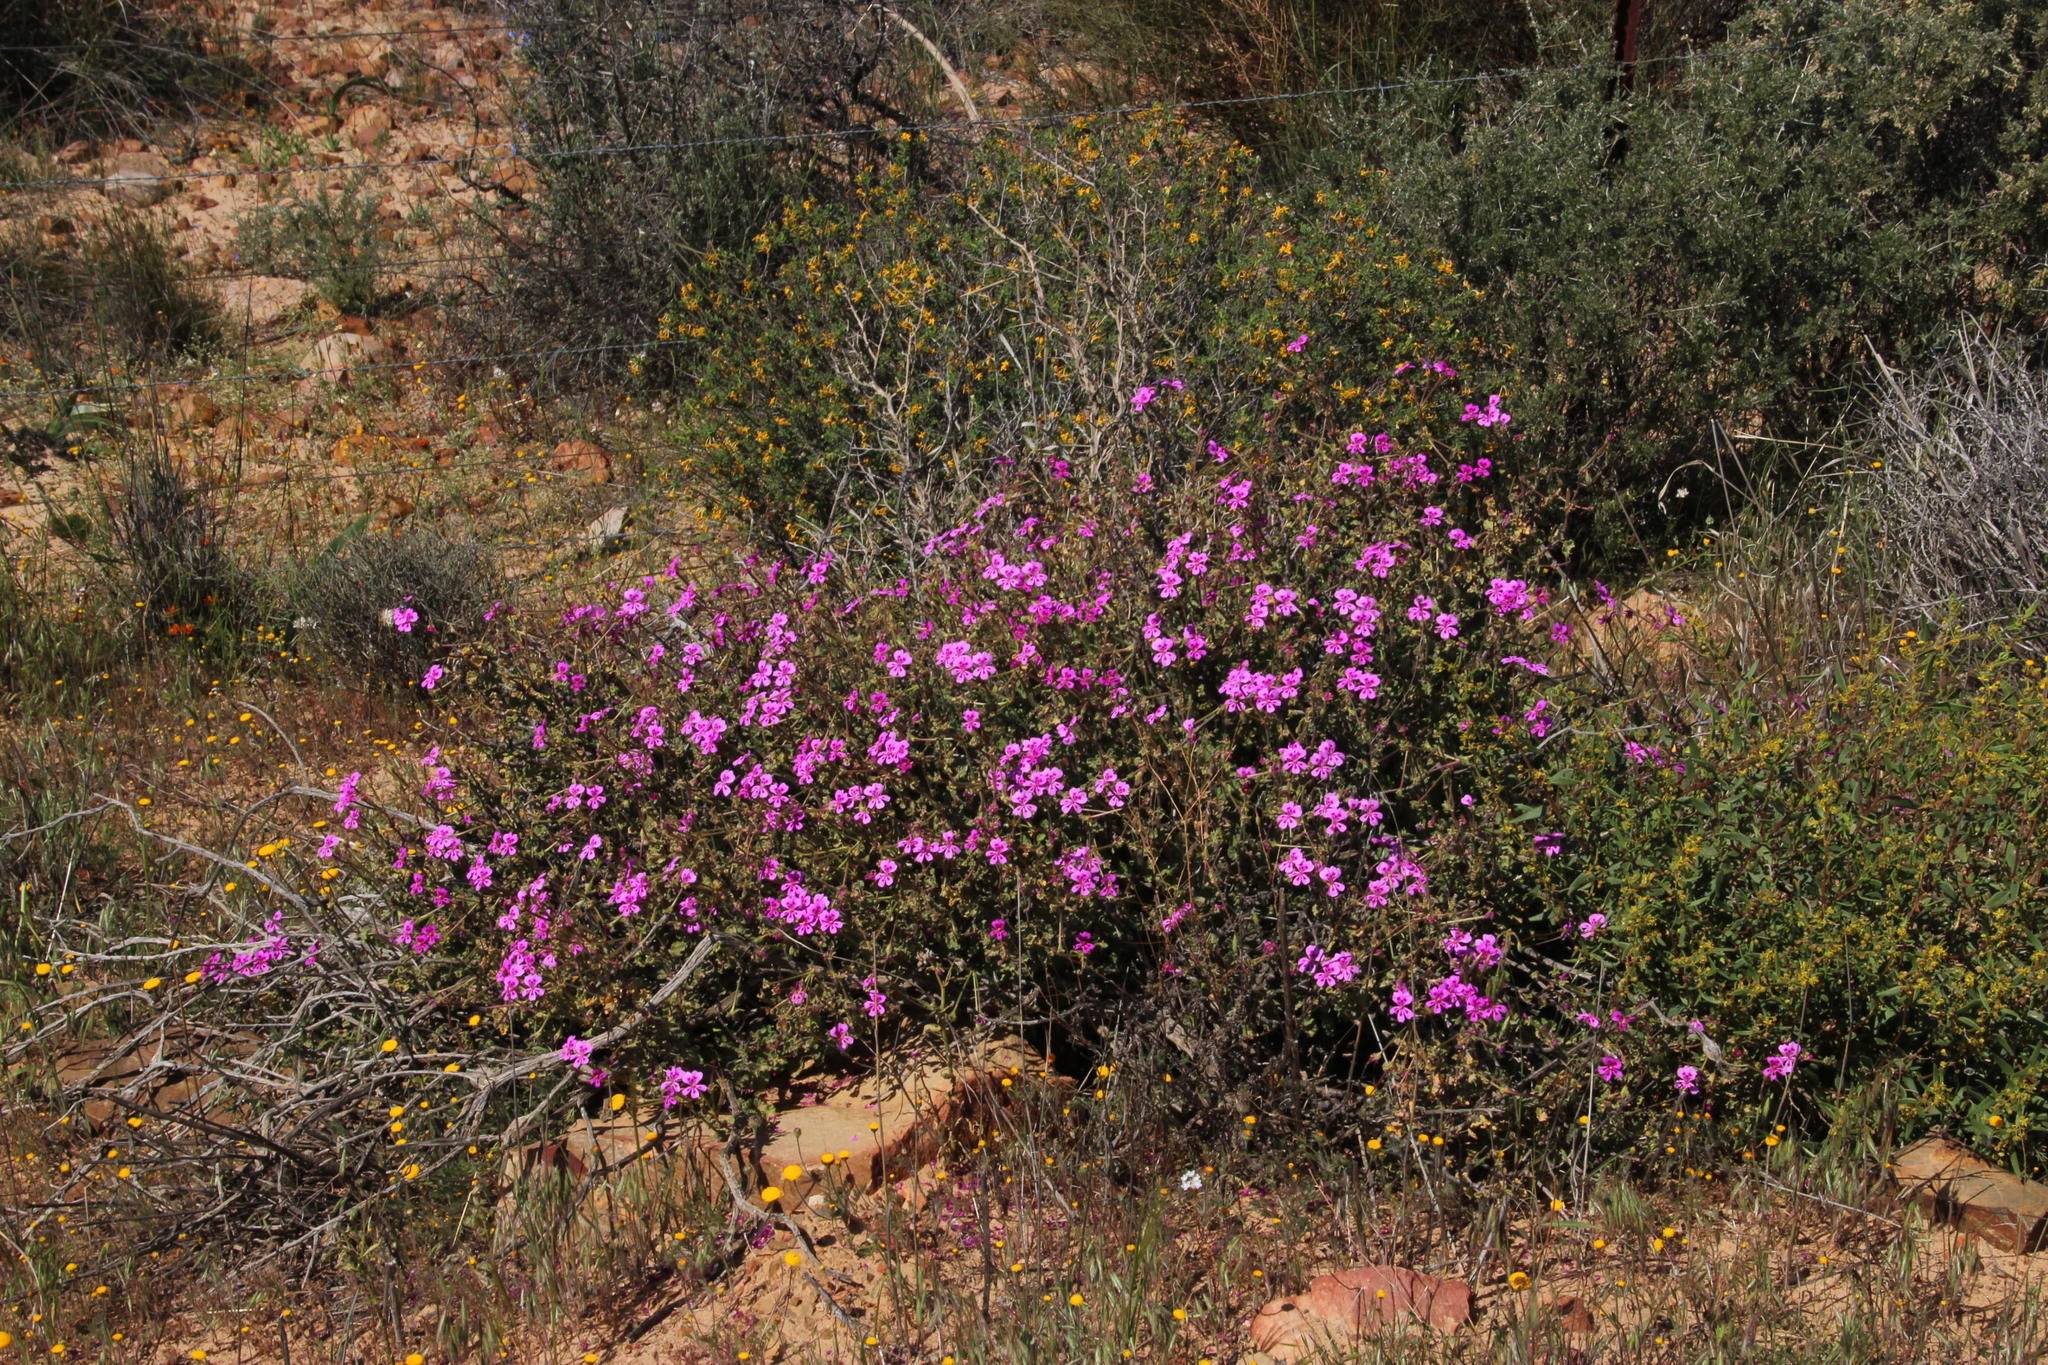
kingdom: Plantae
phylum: Tracheophyta
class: Magnoliopsida
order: Geraniales
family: Geraniaceae
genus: Pelargonium
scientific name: Pelargonium magenteum
